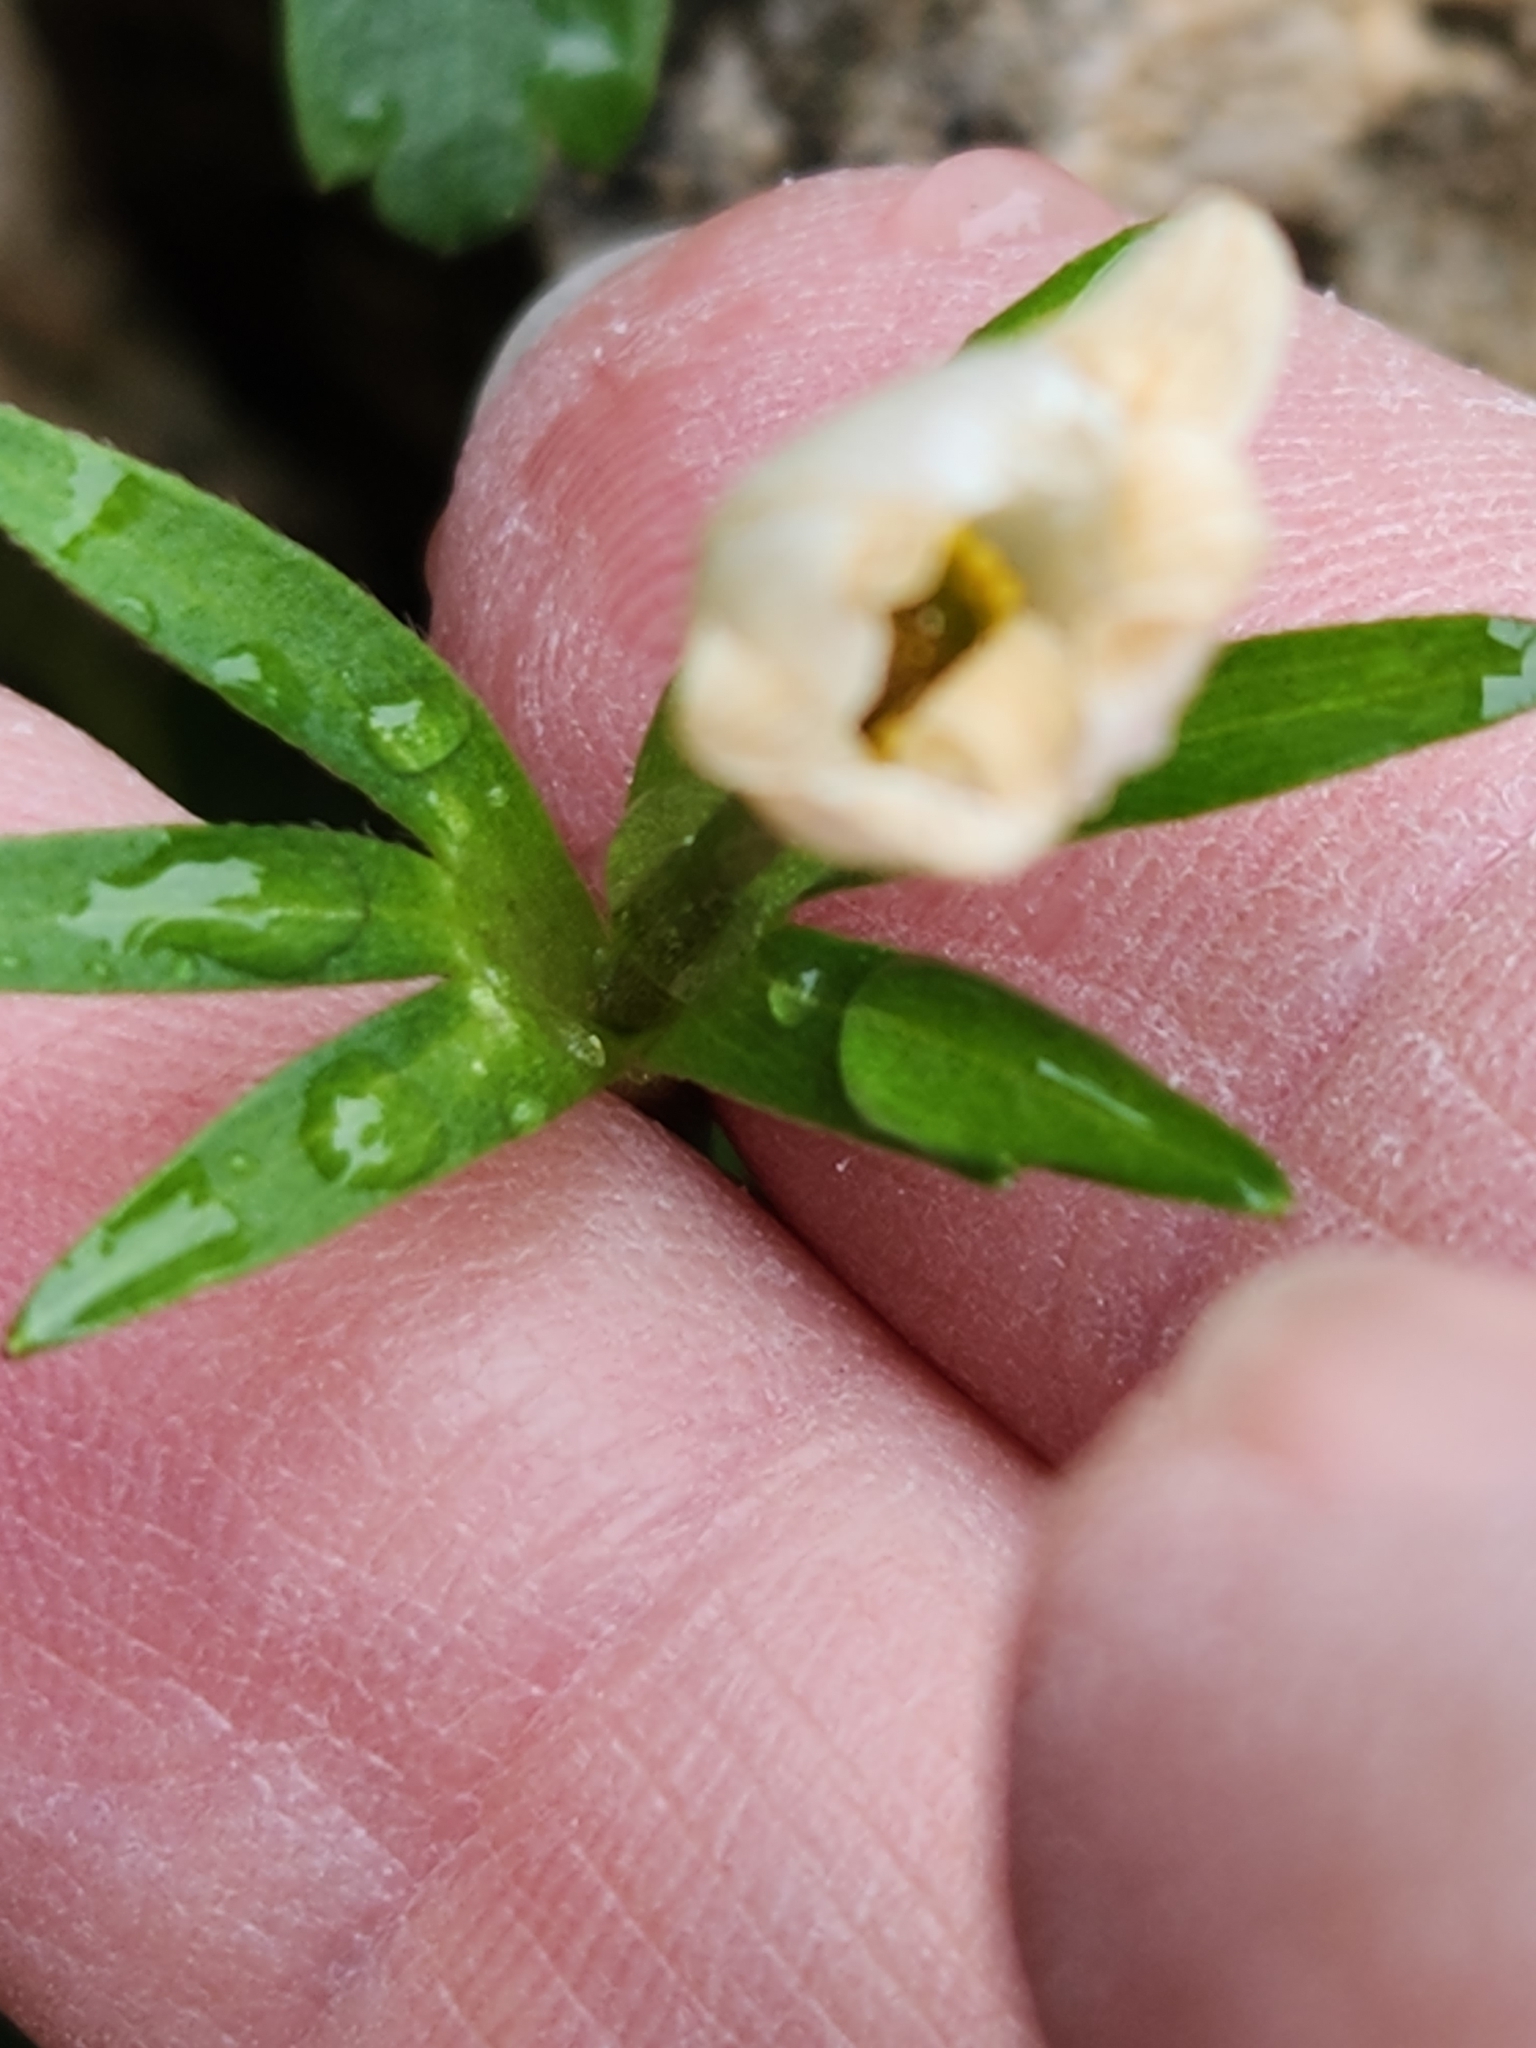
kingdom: Plantae
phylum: Tracheophyta
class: Magnoliopsida
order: Ranunculales
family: Ranunculaceae
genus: Anemone
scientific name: Anemone edwardsiana
